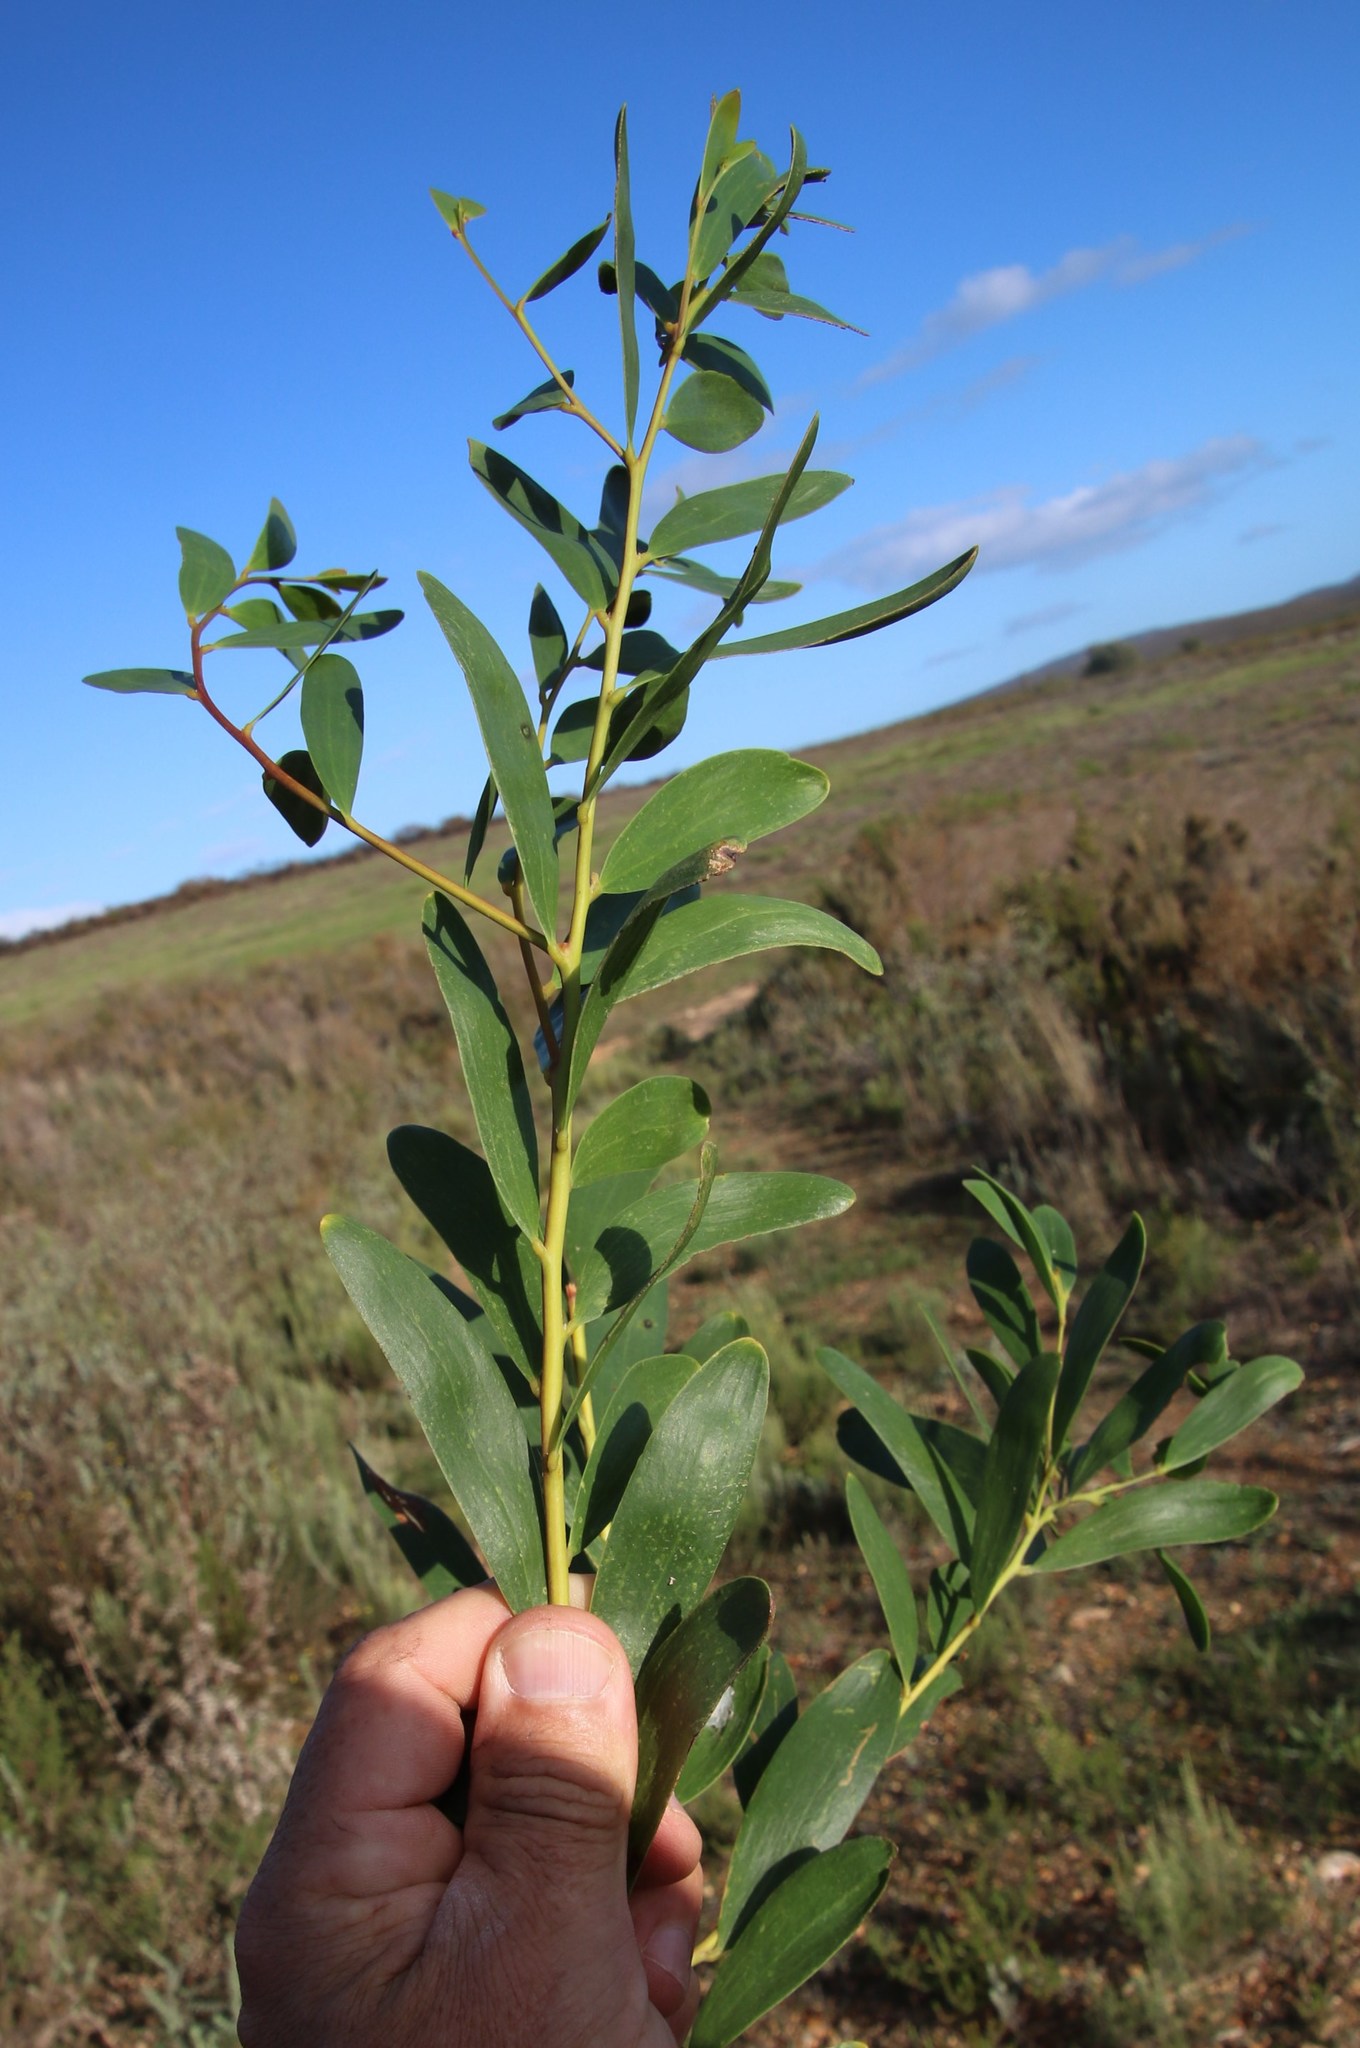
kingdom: Plantae
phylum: Tracheophyta
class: Magnoliopsida
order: Fabales
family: Fabaceae
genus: Acacia
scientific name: Acacia cyclops
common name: Coastal wattle
